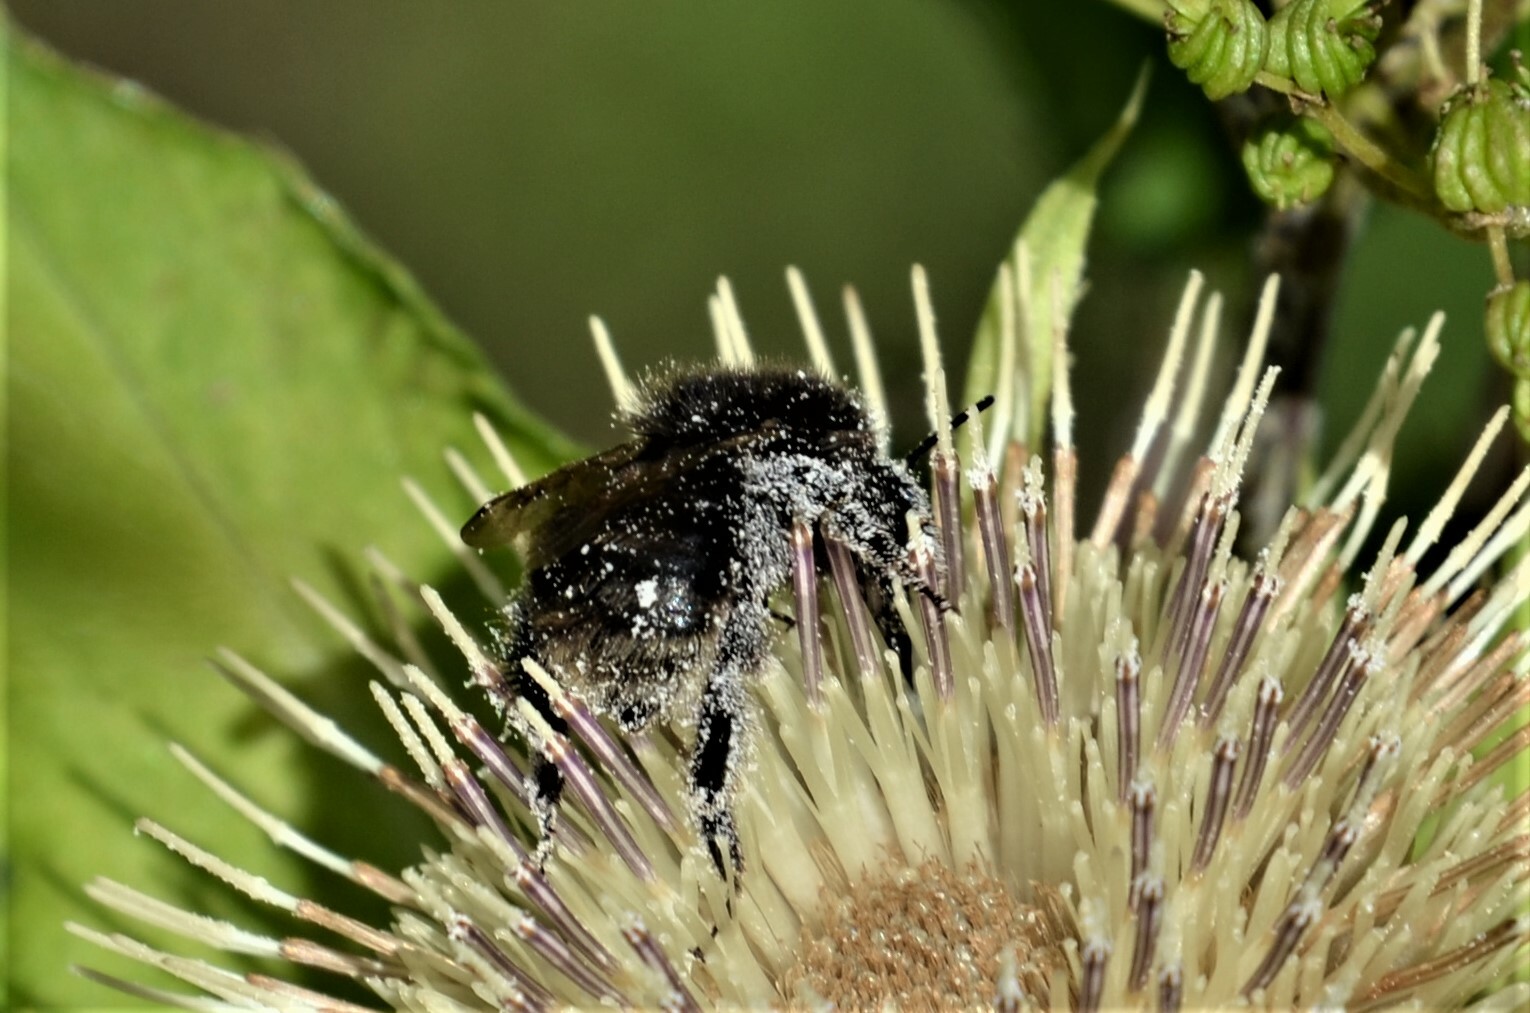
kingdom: Animalia
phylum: Arthropoda
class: Insecta
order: Hymenoptera
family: Apidae
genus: Bombus
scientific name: Bombus humilis
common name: Brown-banded carder-bee
